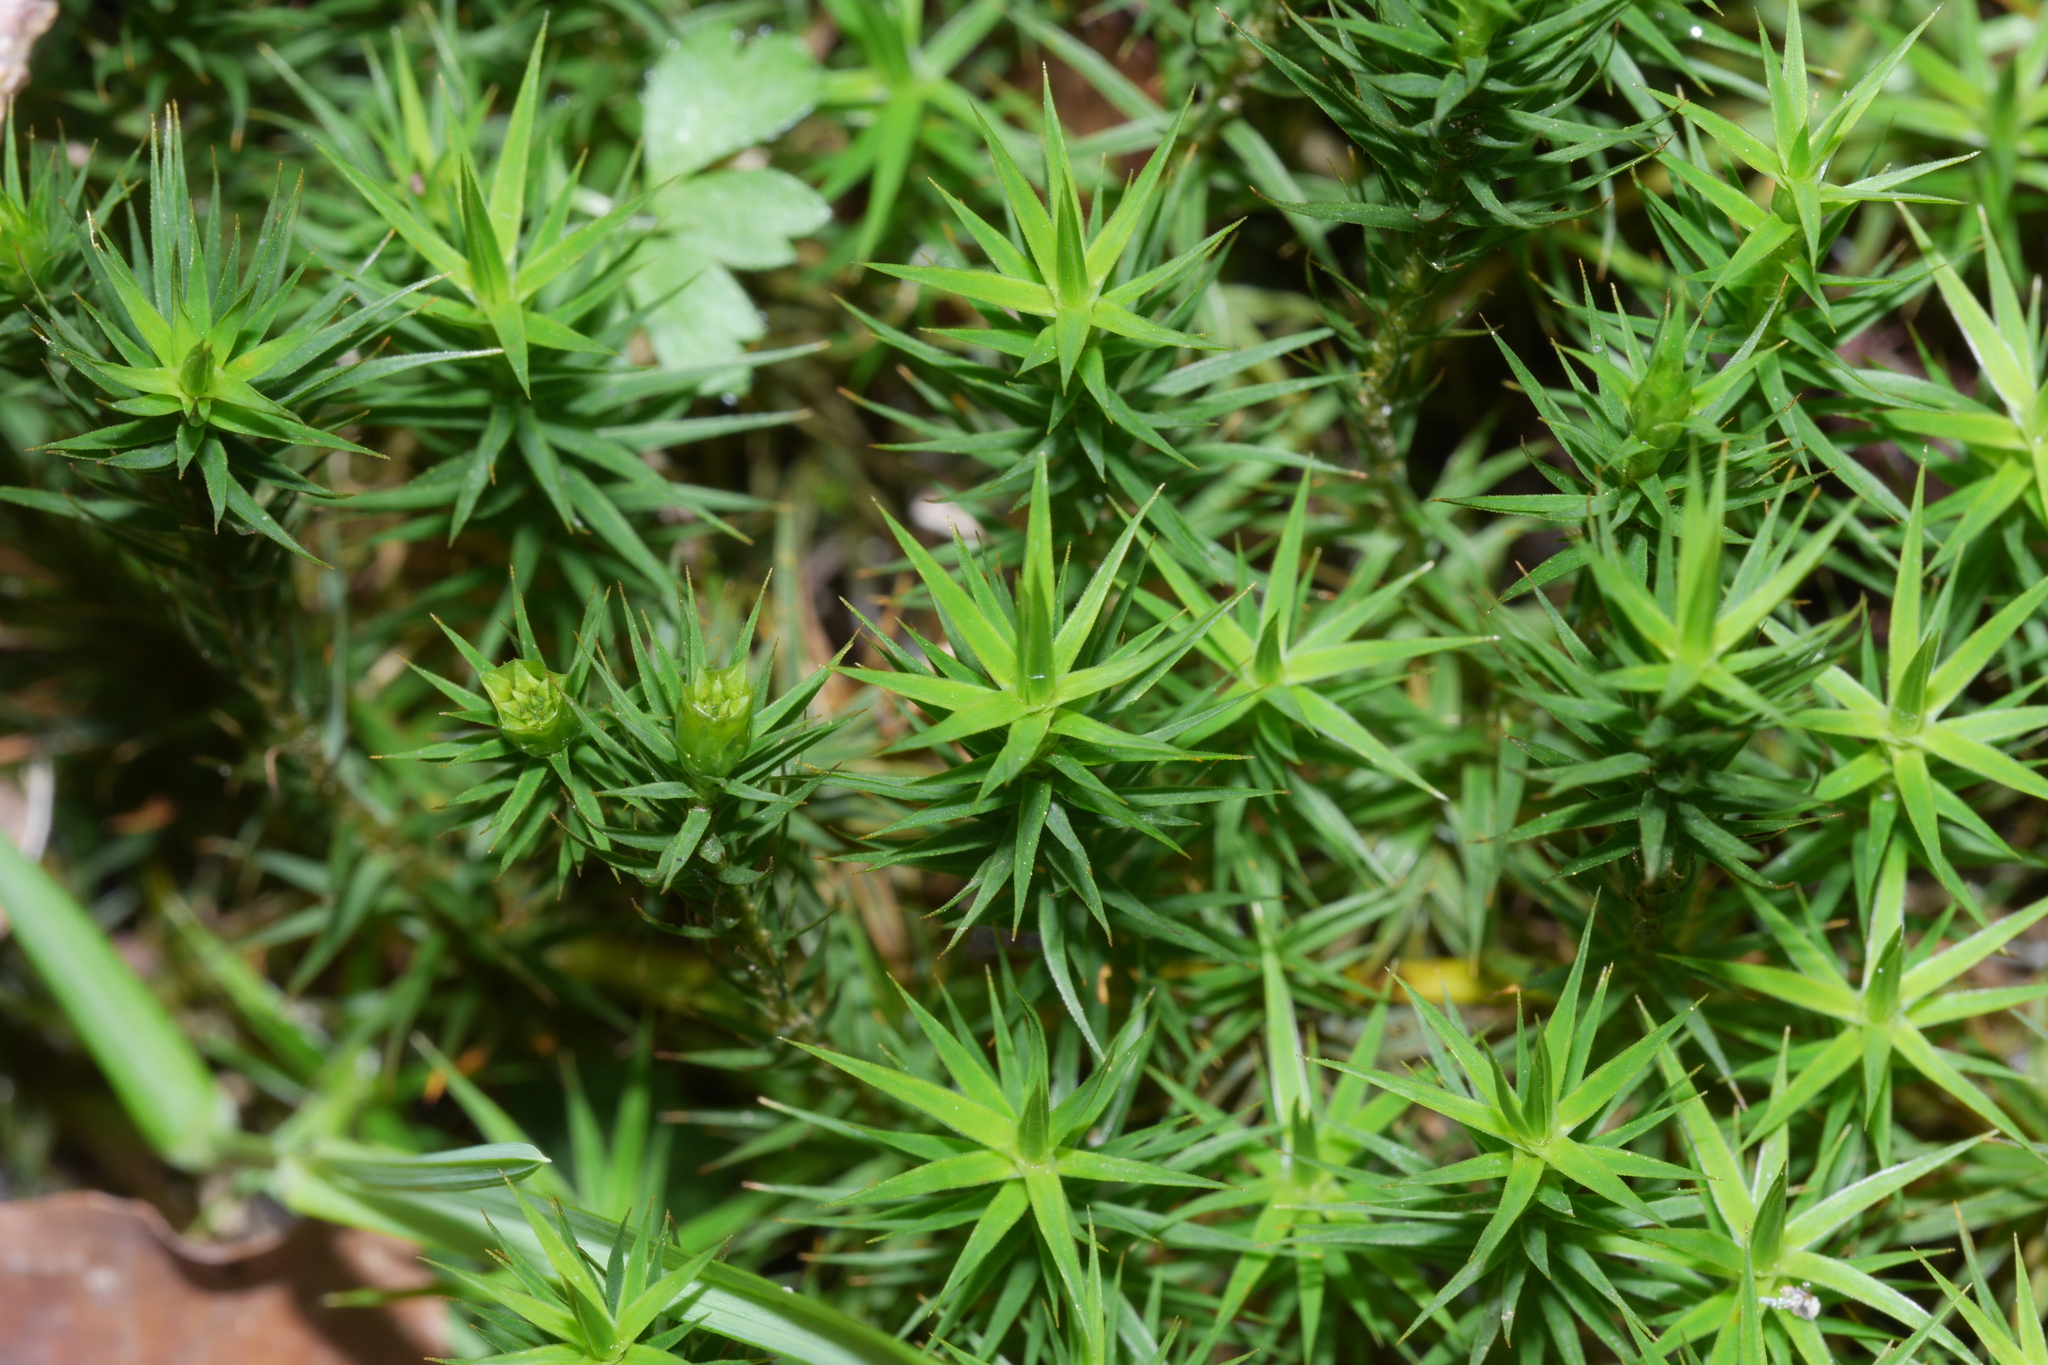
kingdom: Plantae
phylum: Bryophyta
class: Polytrichopsida
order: Polytrichales
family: Polytrichaceae
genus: Polytrichum
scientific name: Polytrichum formosum
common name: Bank haircap moss
